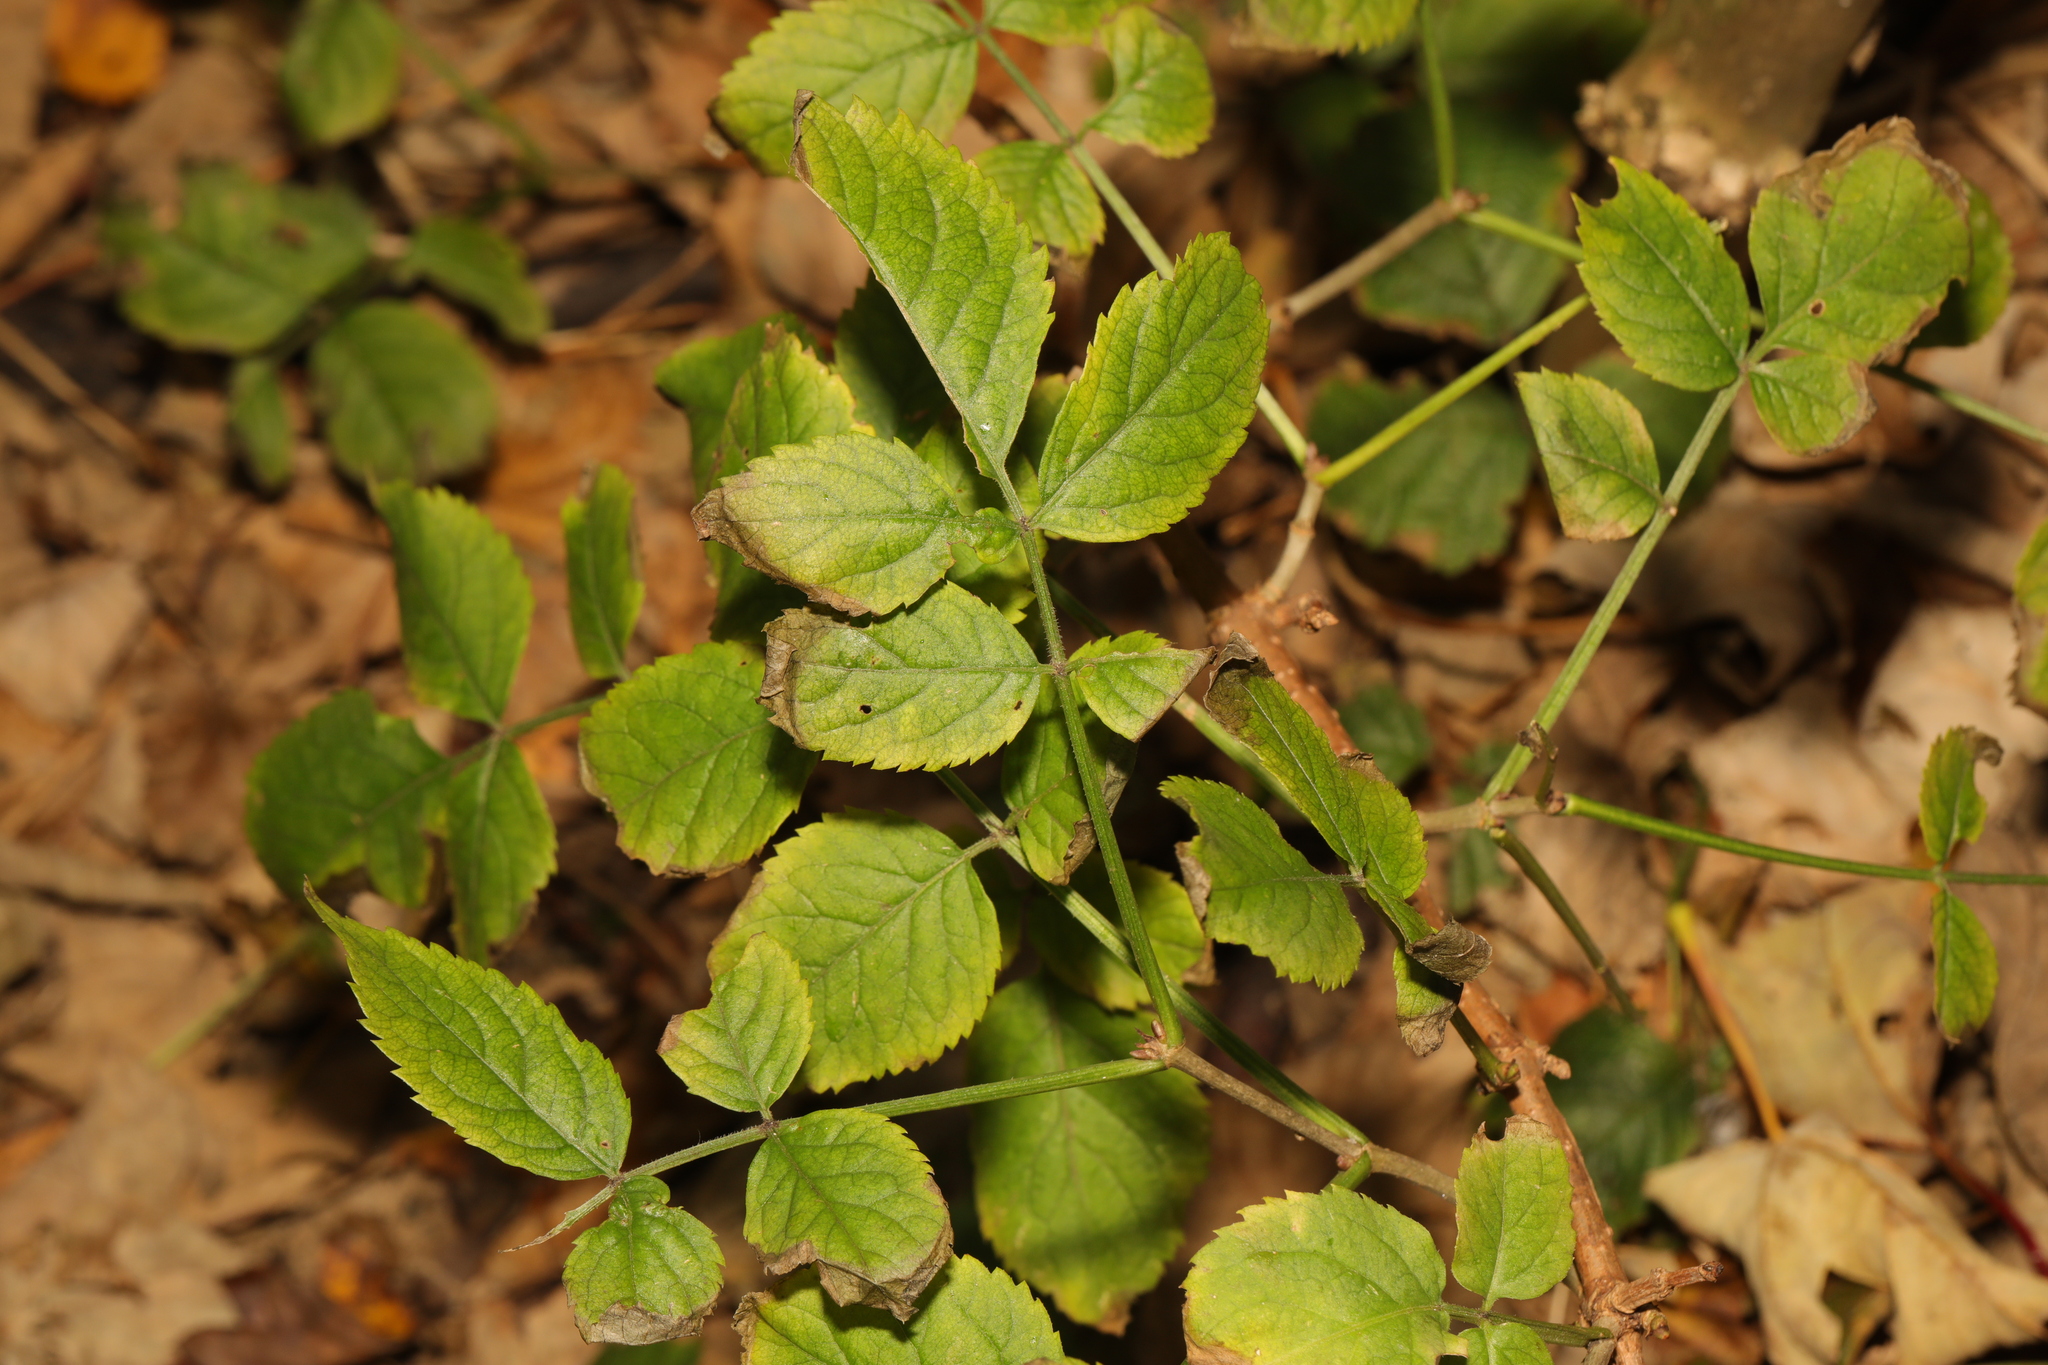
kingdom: Plantae
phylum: Tracheophyta
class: Magnoliopsida
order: Dipsacales
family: Viburnaceae
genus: Sambucus
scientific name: Sambucus nigra
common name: Elder
